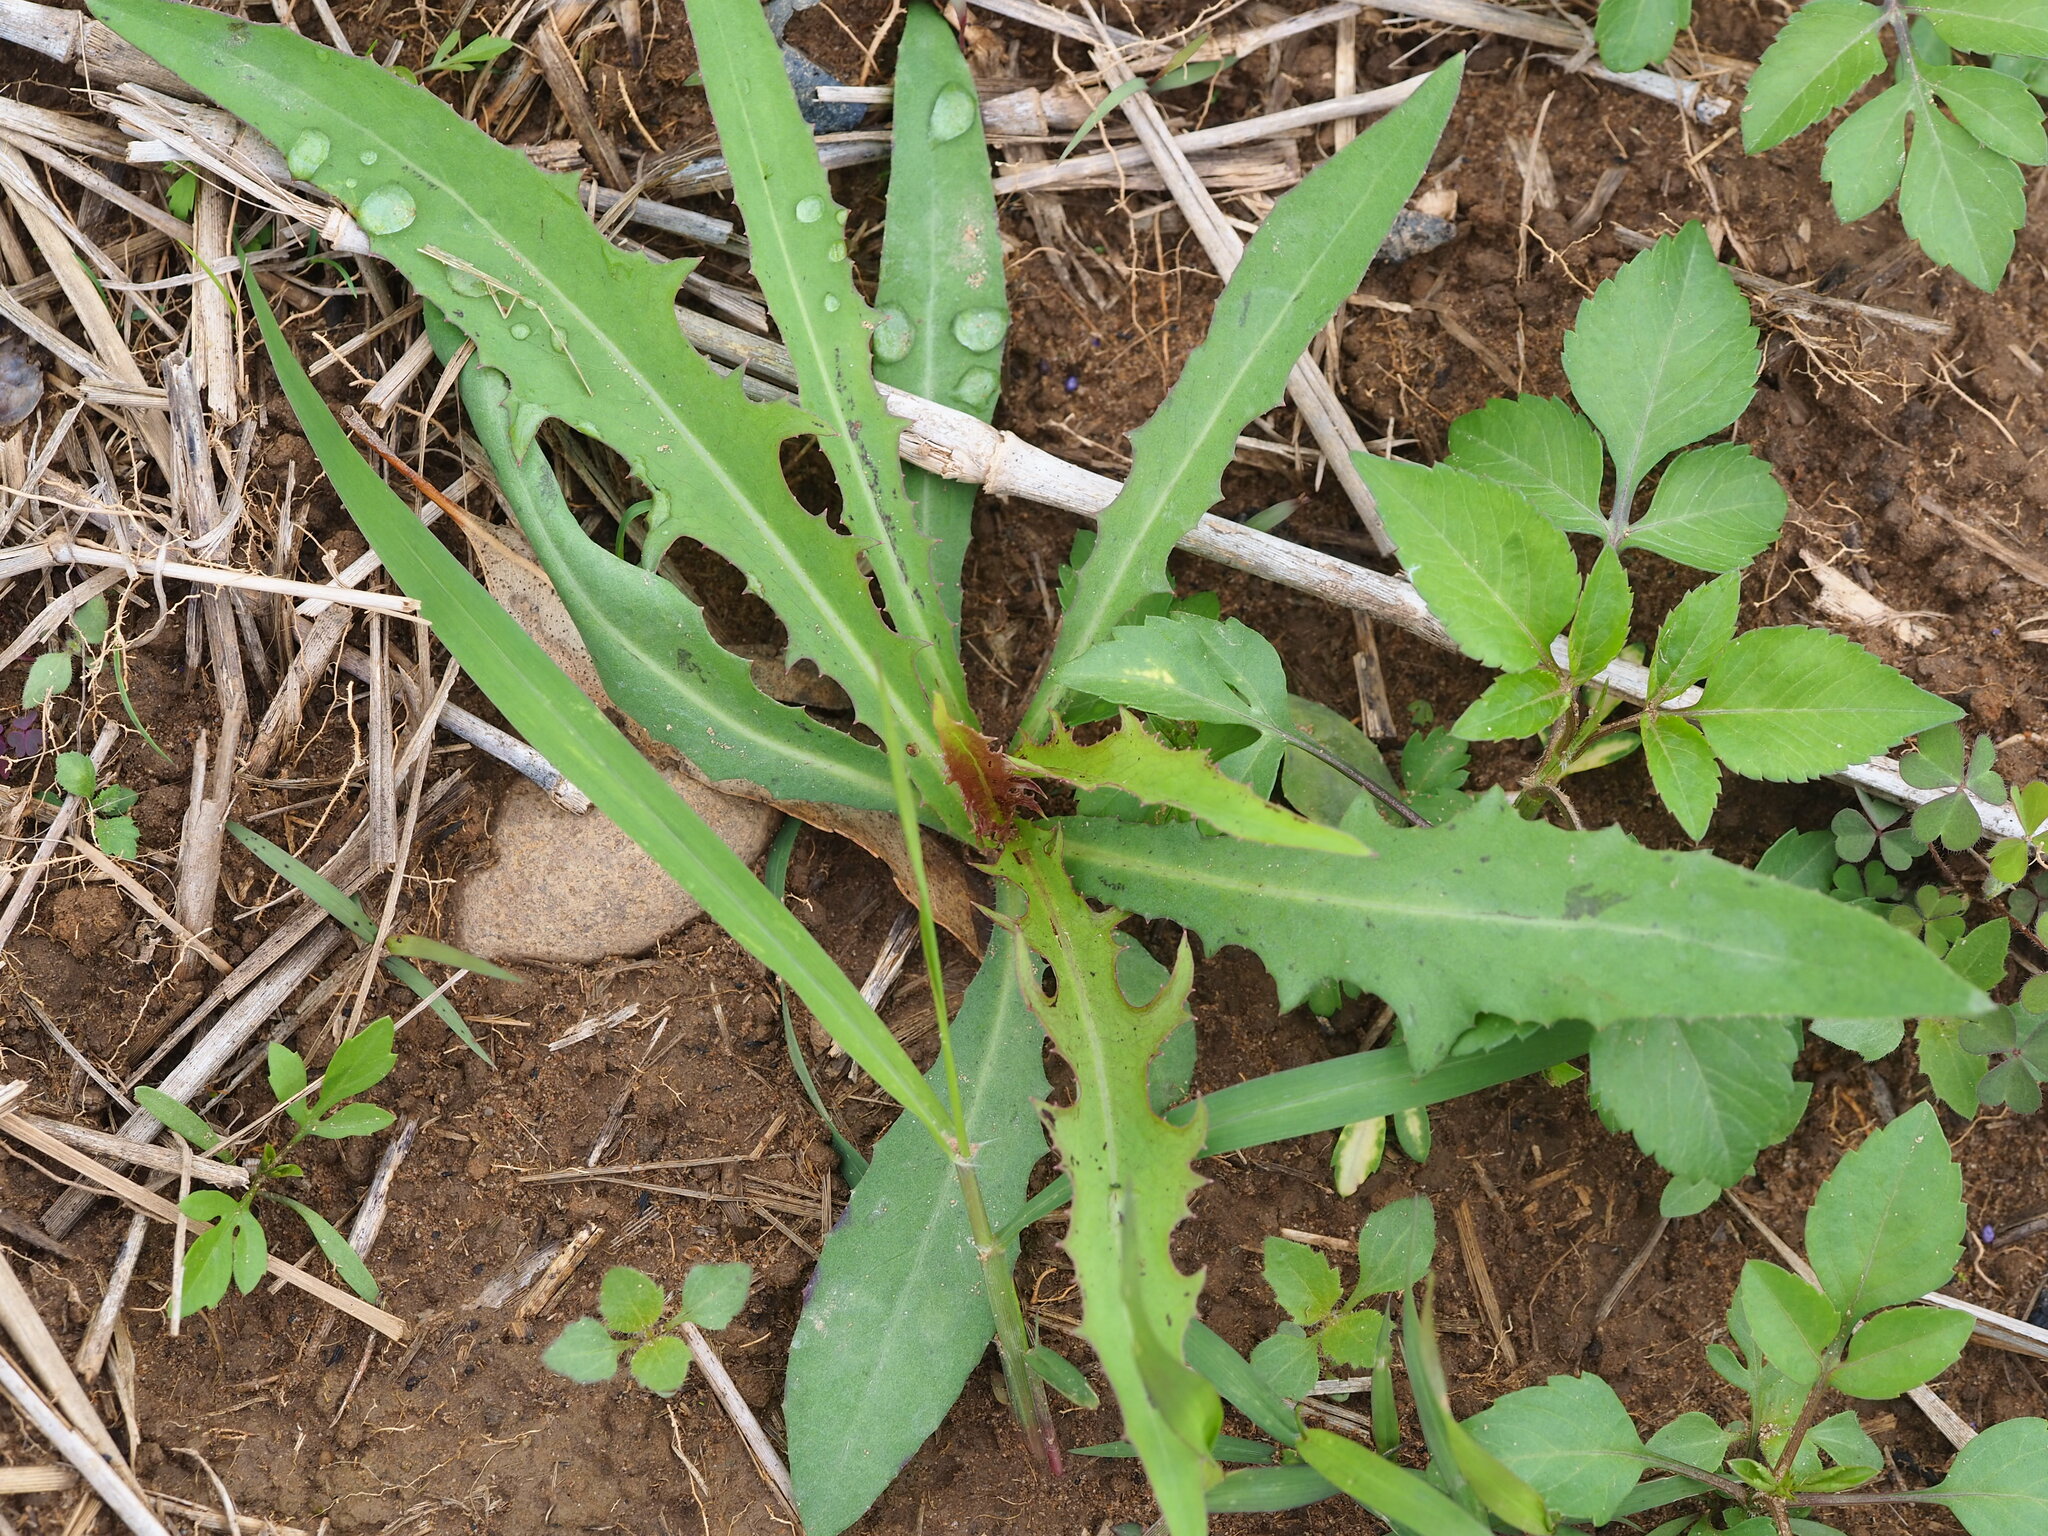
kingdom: Plantae
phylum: Tracheophyta
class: Magnoliopsida
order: Asterales
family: Asteraceae
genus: Lactuca
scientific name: Lactuca indica
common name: Wild lettuce
